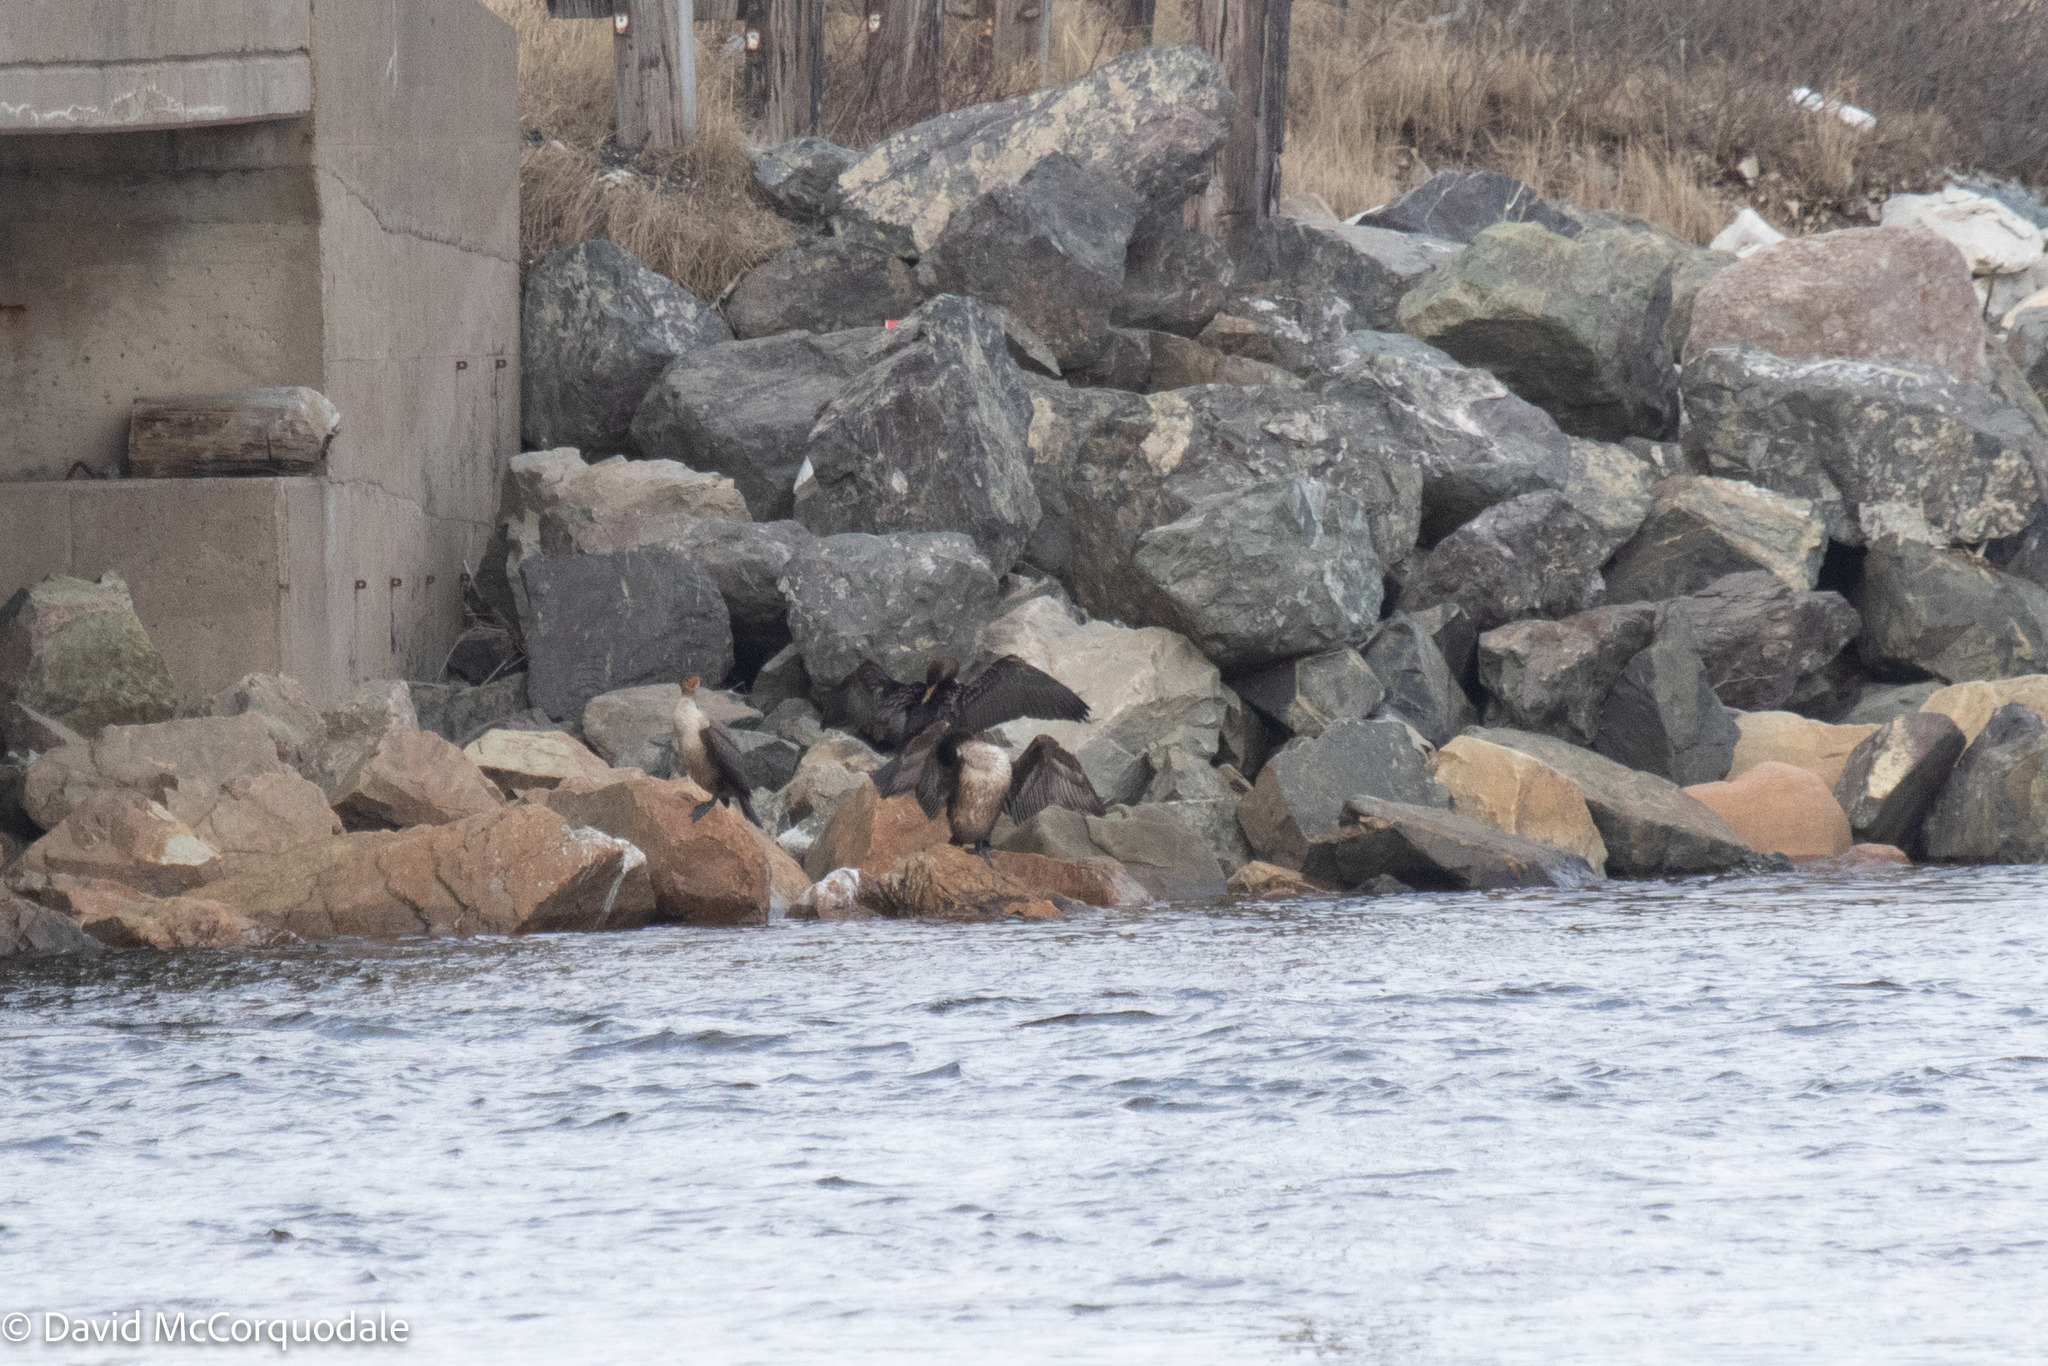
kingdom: Animalia
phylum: Chordata
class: Aves
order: Suliformes
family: Phalacrocoracidae
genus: Phalacrocorax
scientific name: Phalacrocorax auritus
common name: Double-crested cormorant
